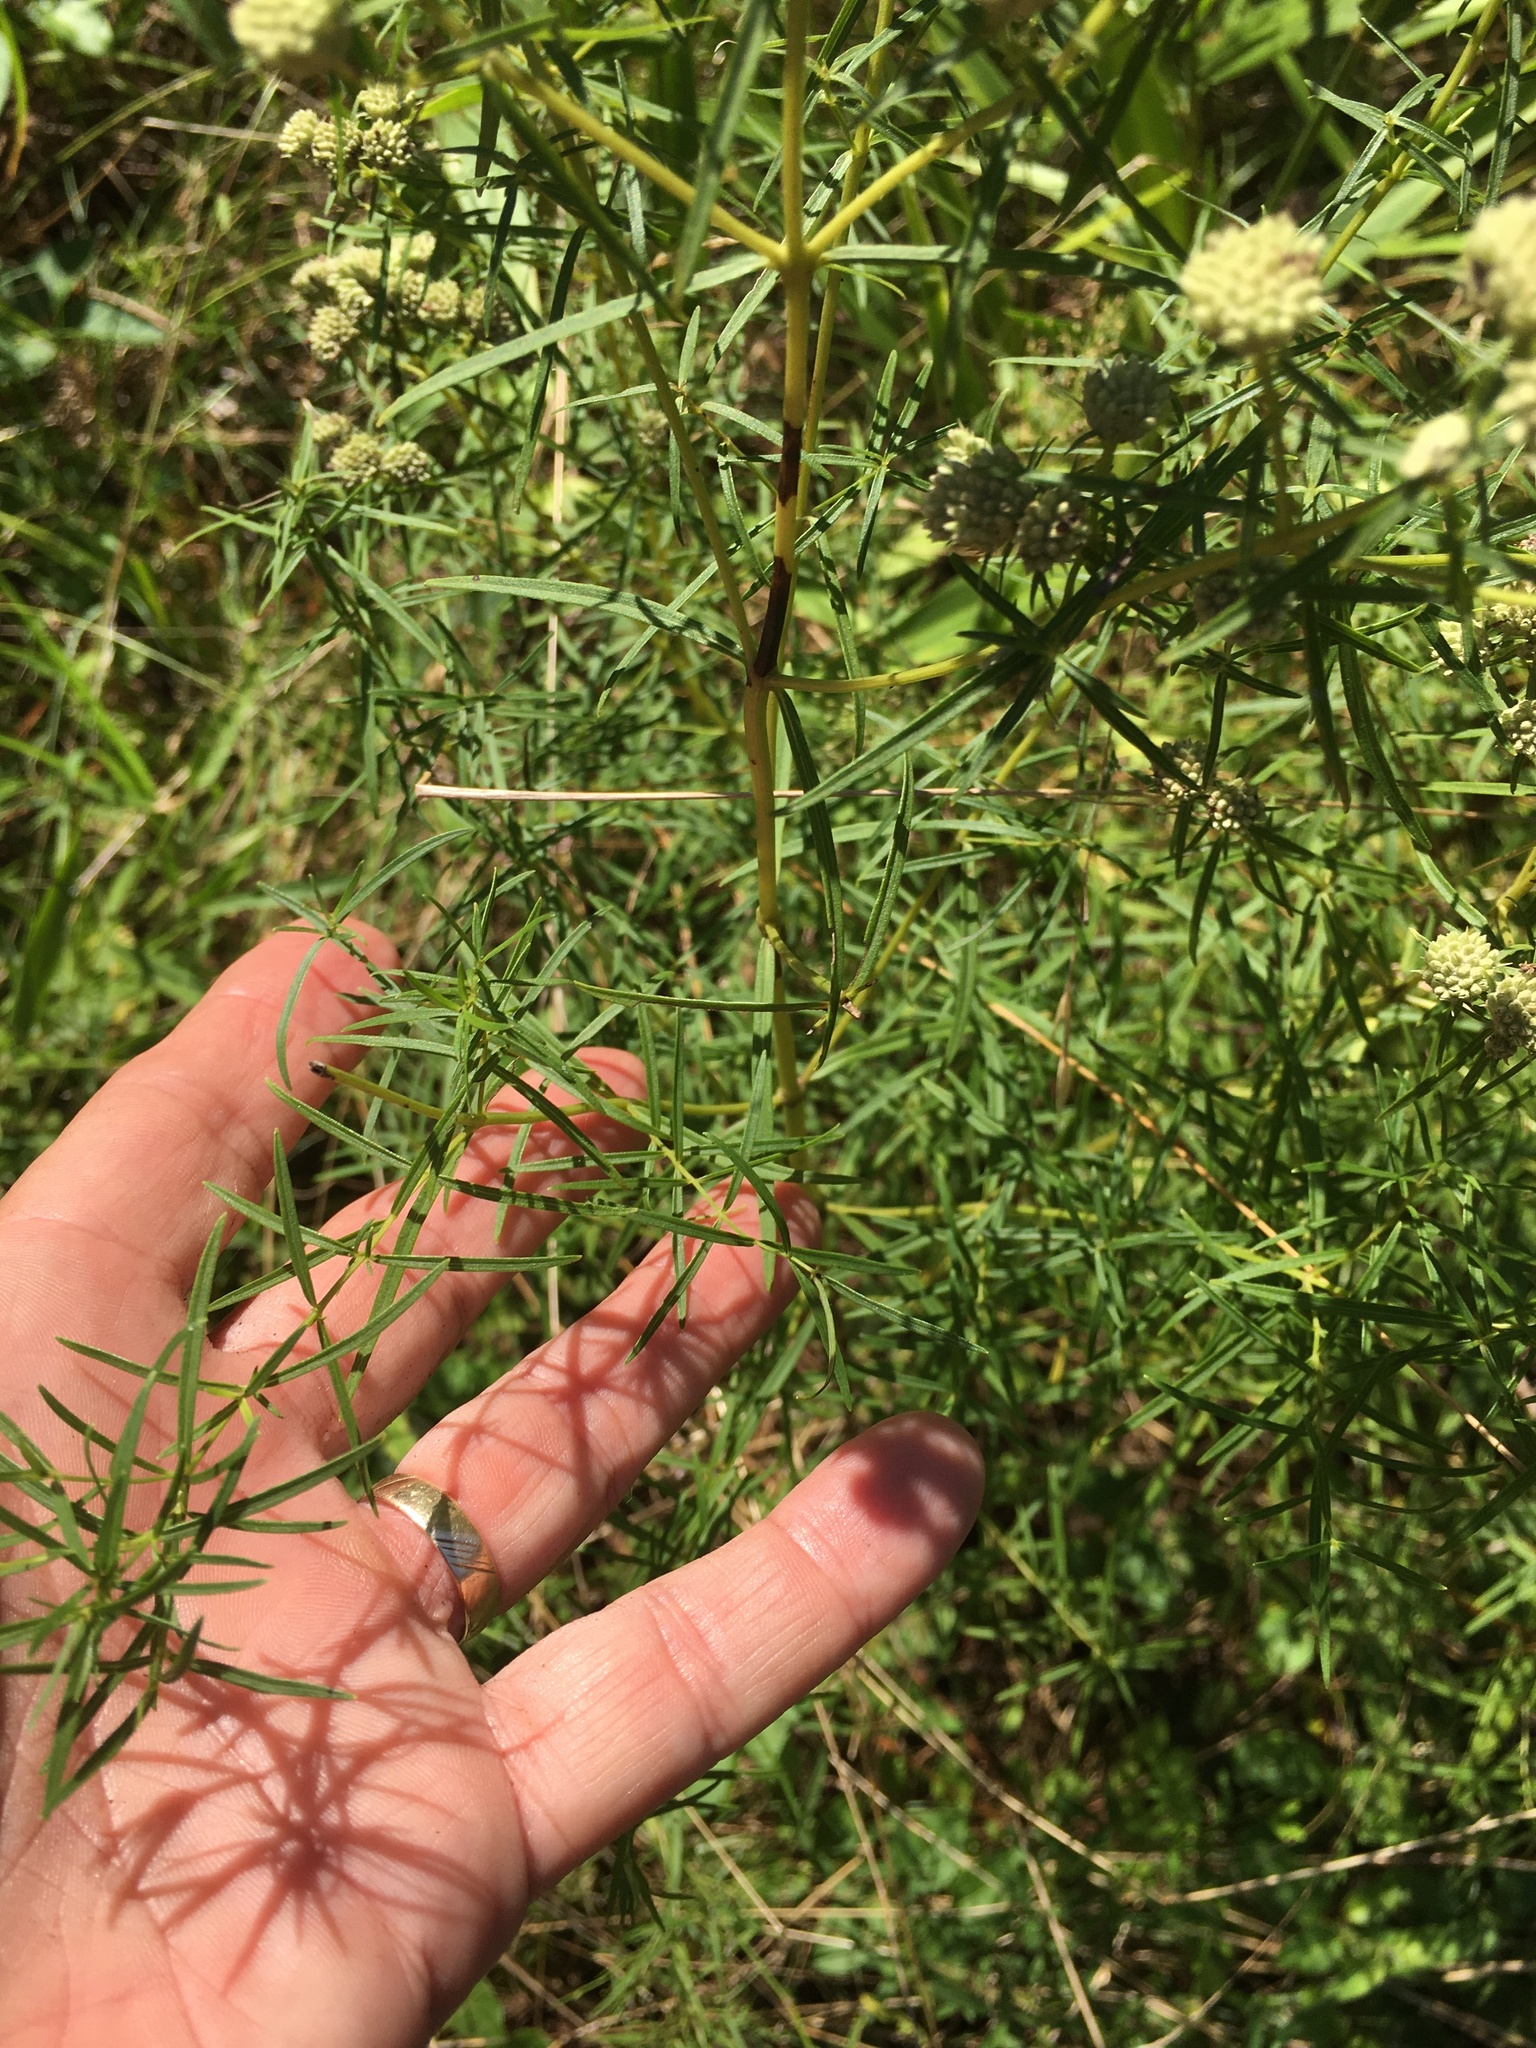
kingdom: Plantae
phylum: Tracheophyta
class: Magnoliopsida
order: Lamiales
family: Lamiaceae
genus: Pycnanthemum
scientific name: Pycnanthemum tenuifolium
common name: Narrow-leaf mountain-mint
